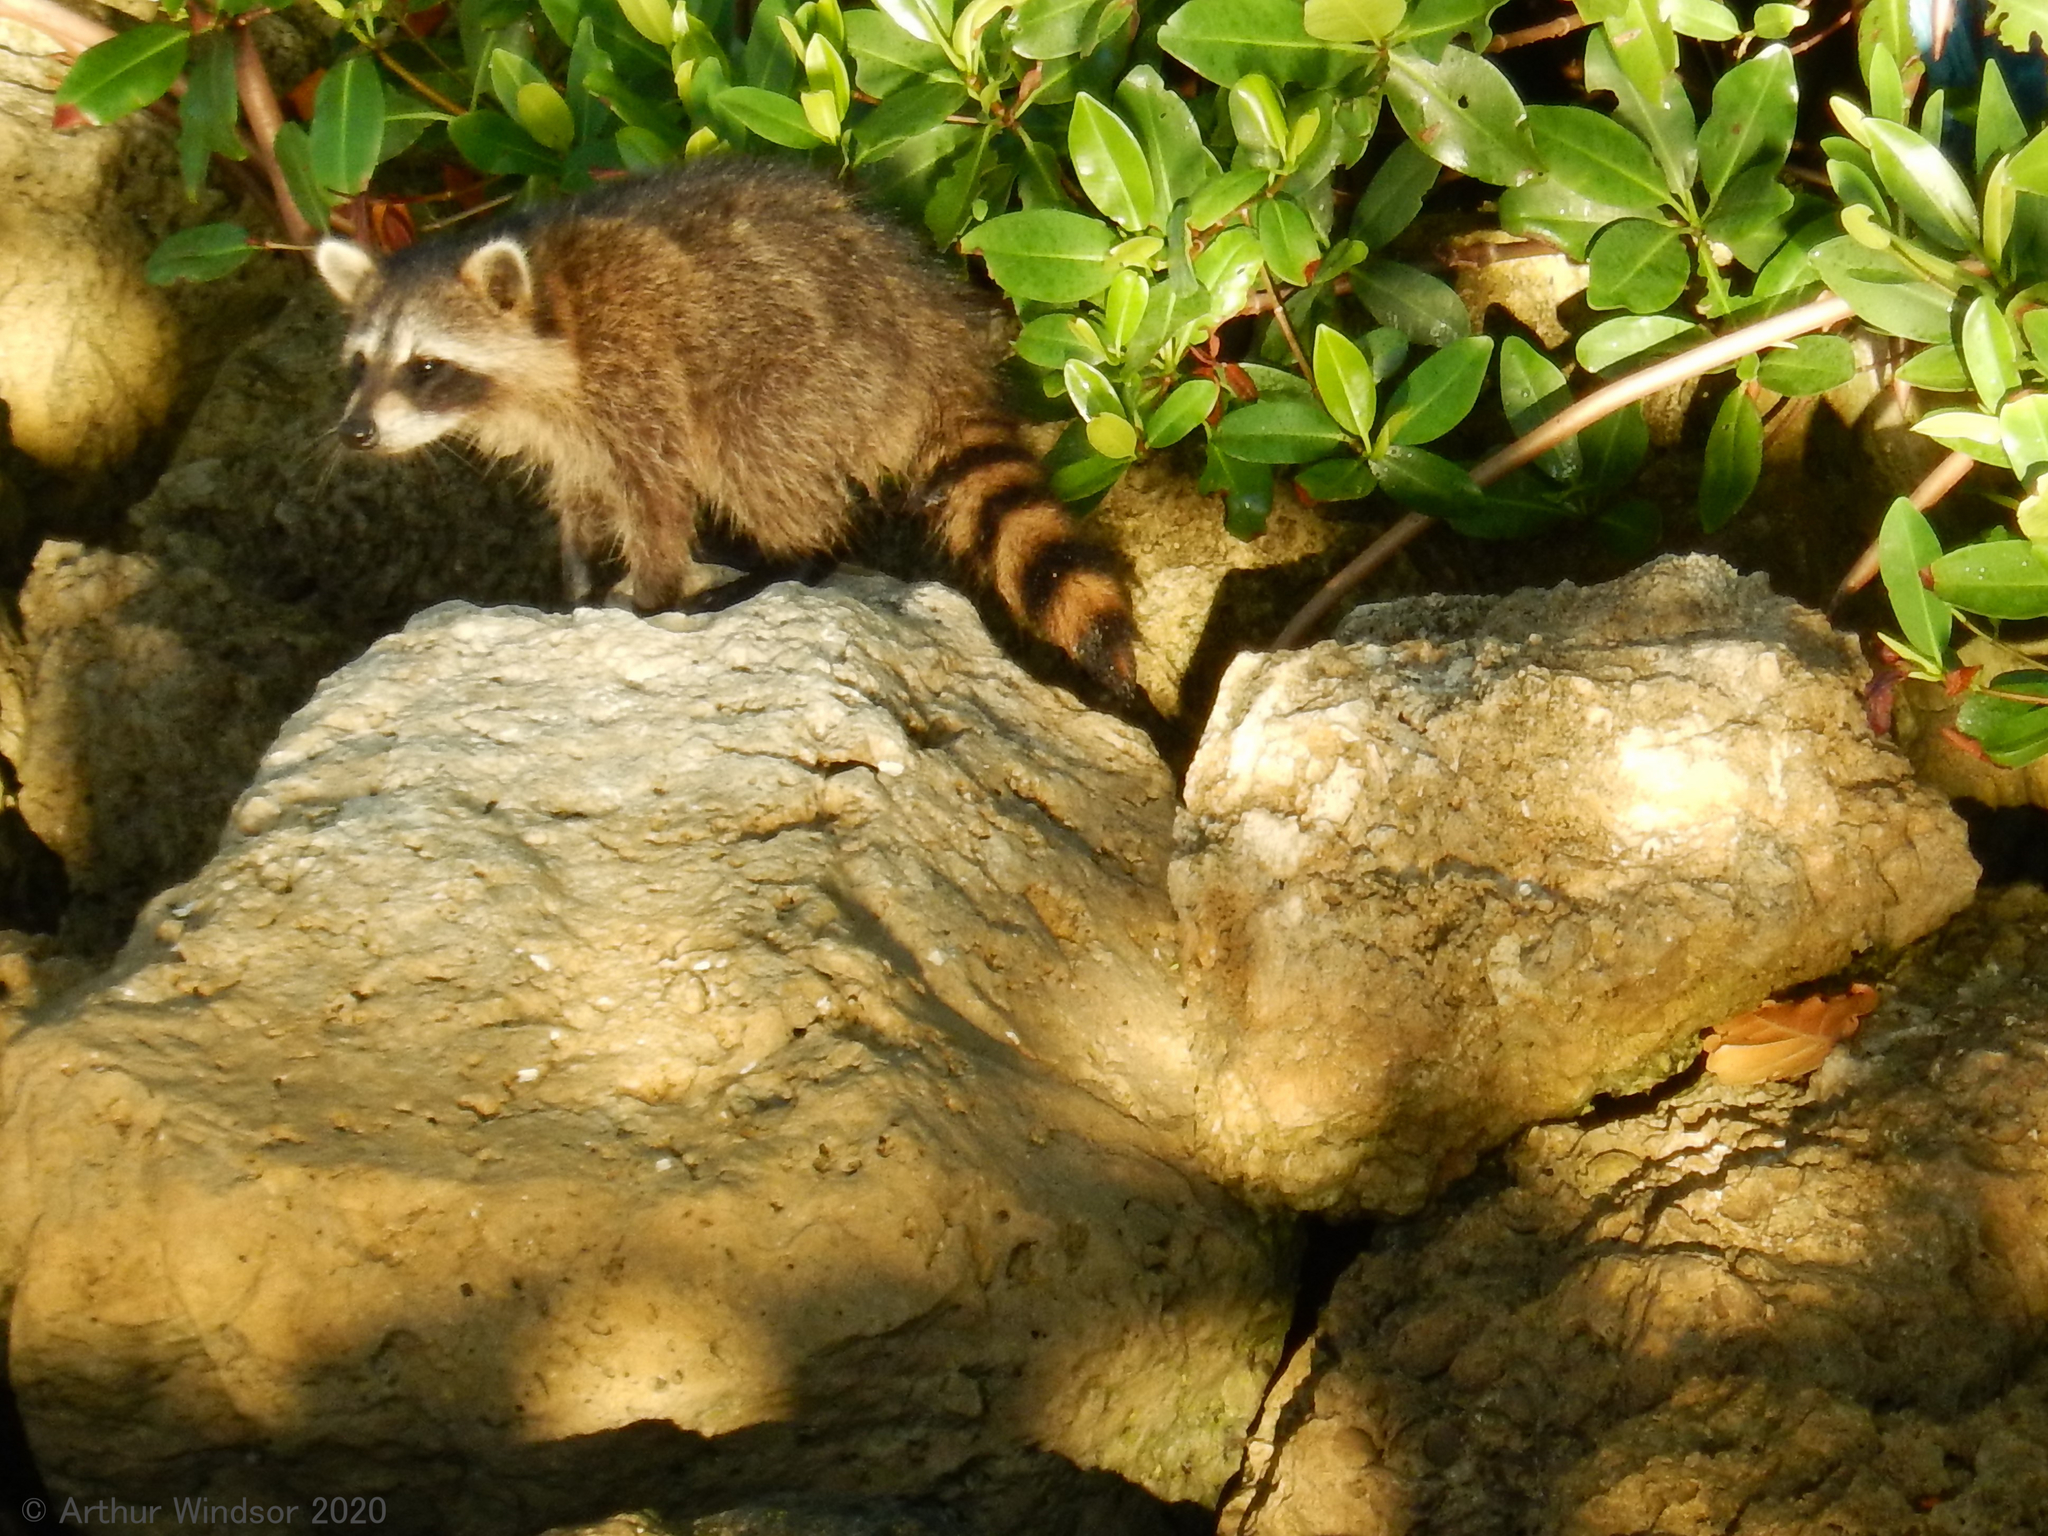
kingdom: Animalia
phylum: Chordata
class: Mammalia
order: Carnivora
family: Procyonidae
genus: Procyon
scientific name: Procyon lotor
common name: Raccoon
